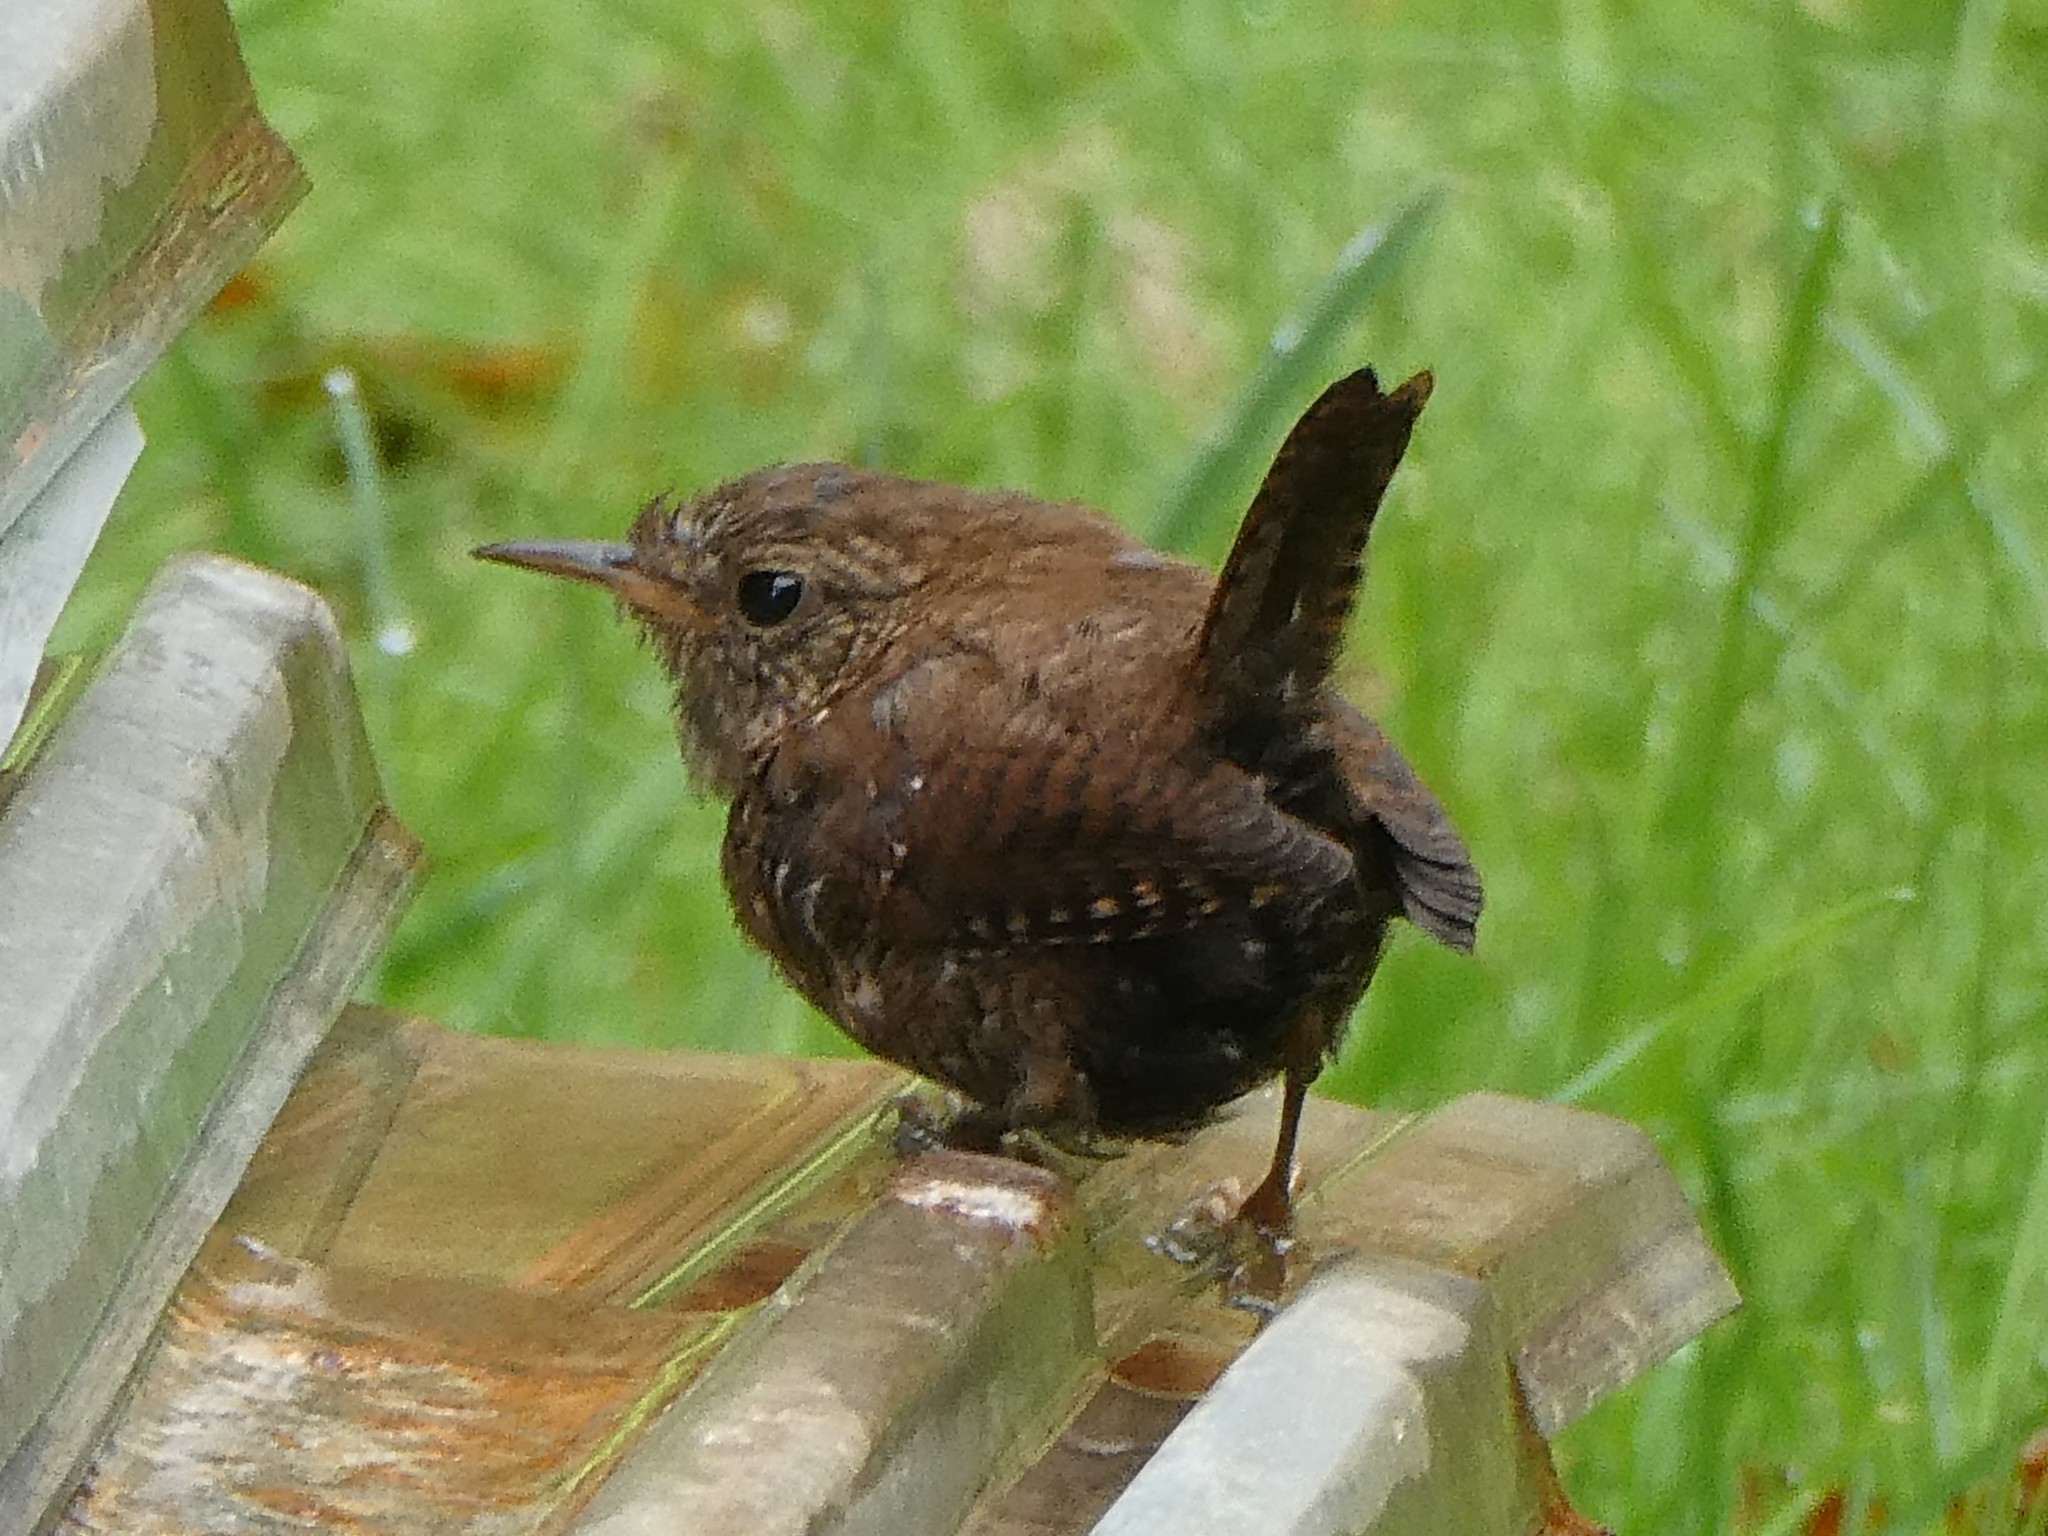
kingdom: Animalia
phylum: Chordata
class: Aves
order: Passeriformes
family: Troglodytidae
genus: Troglodytes
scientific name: Troglodytes hiemalis
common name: Winter wren
